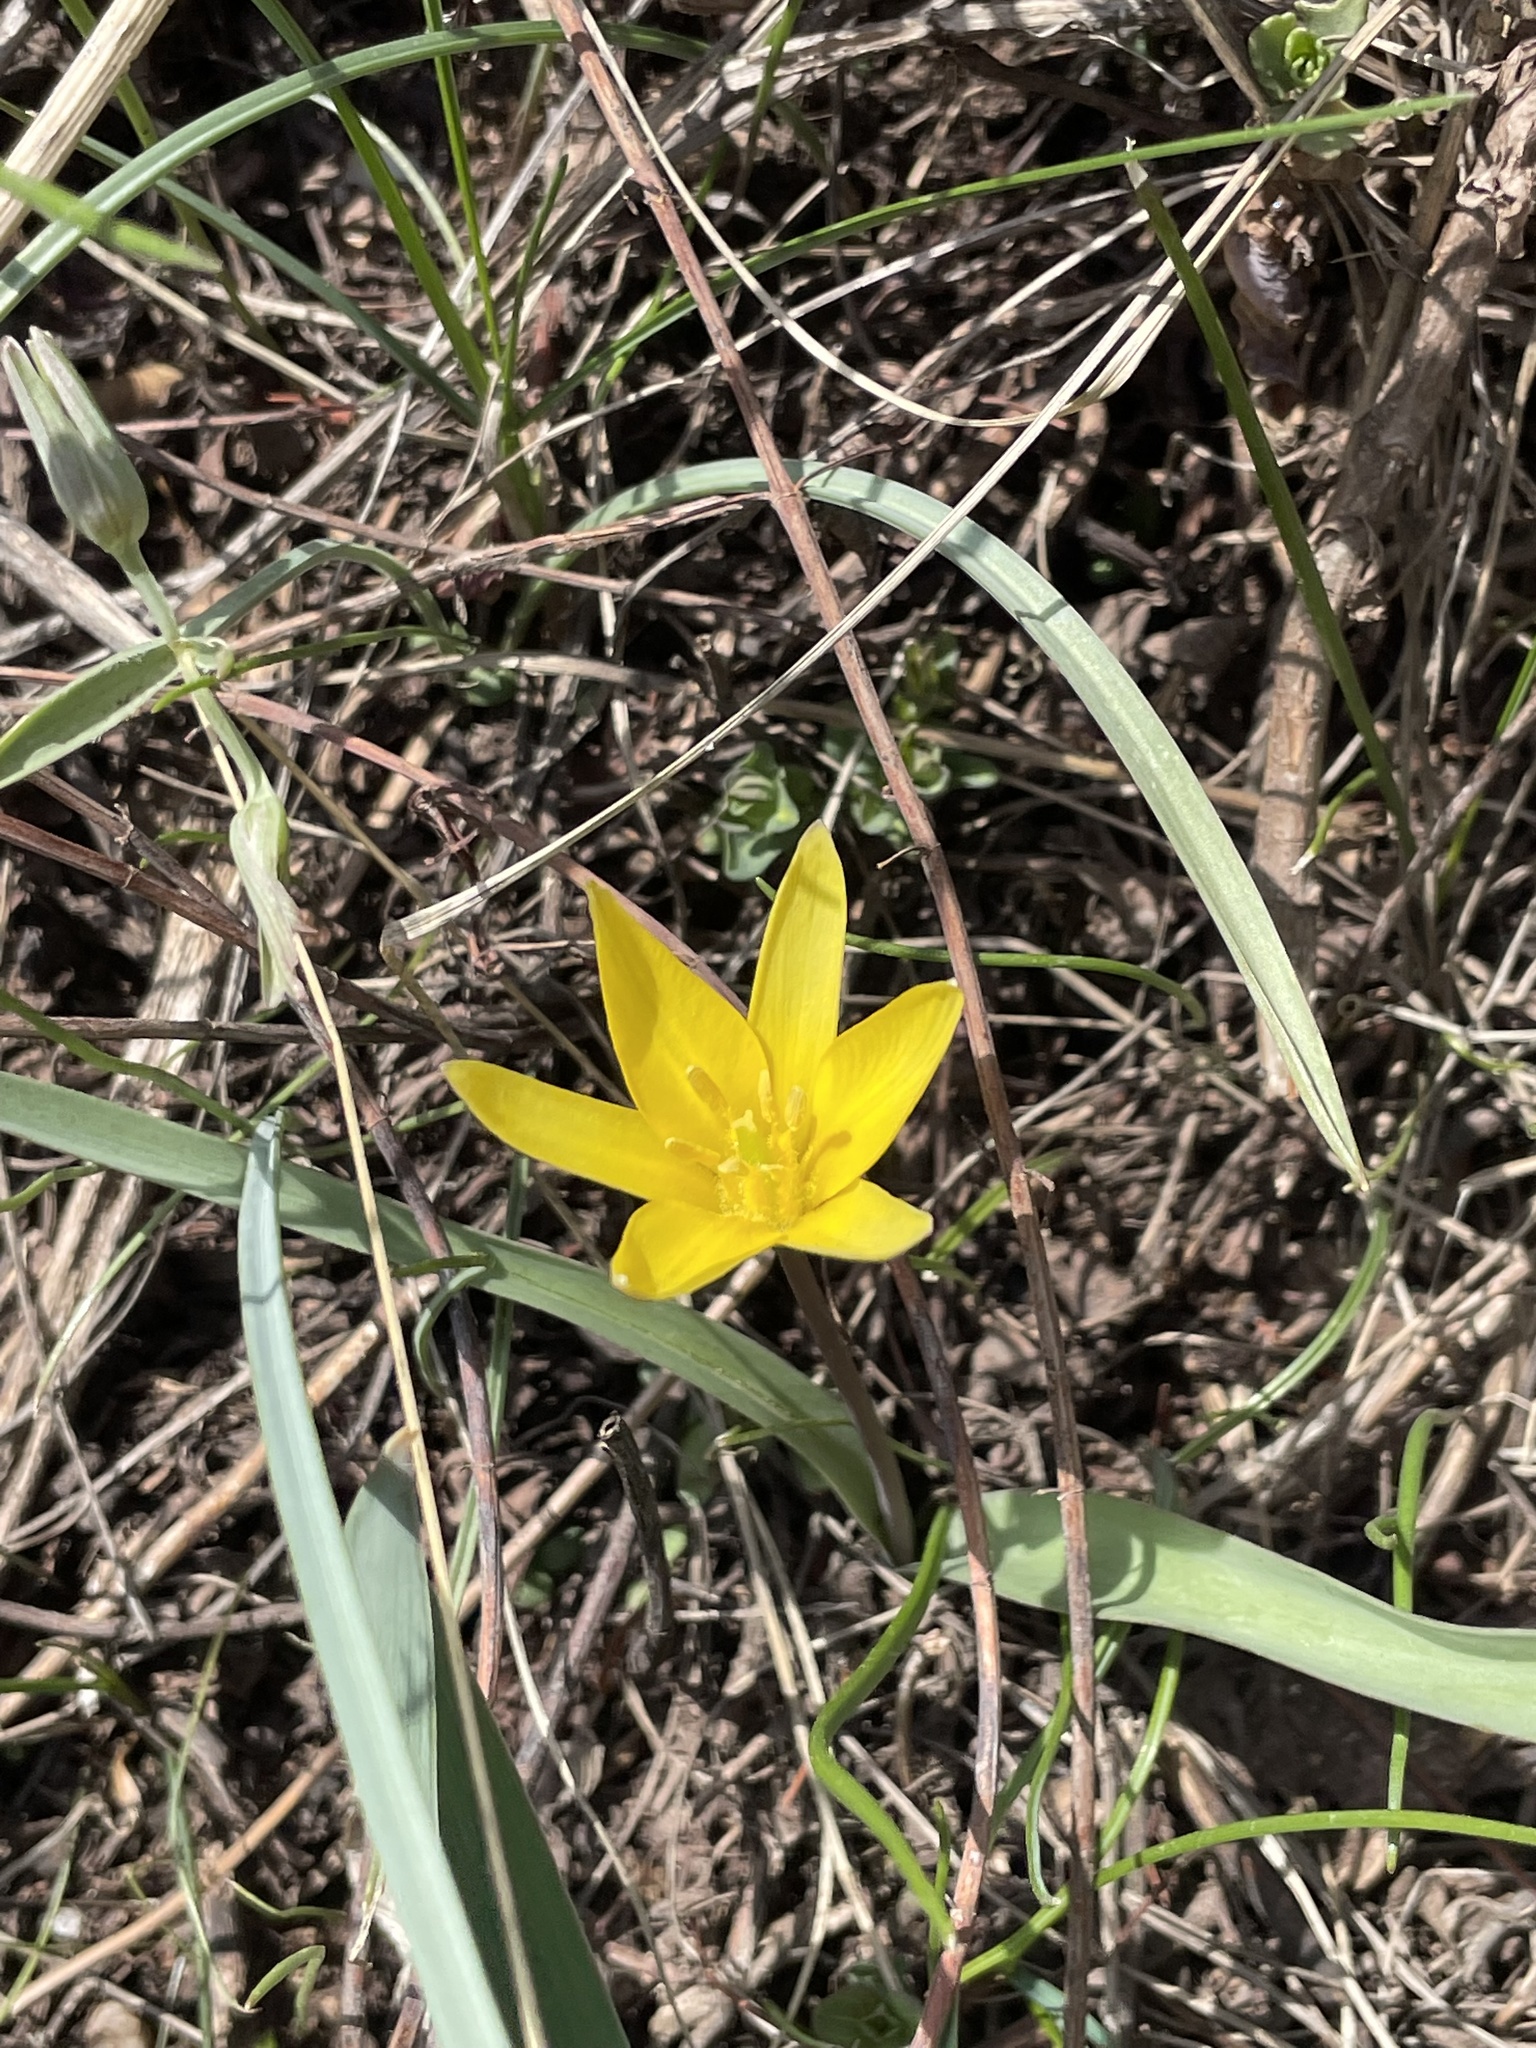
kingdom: Plantae
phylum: Tracheophyta
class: Liliopsida
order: Liliales
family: Liliaceae
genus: Tulipa
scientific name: Tulipa dasystemon
